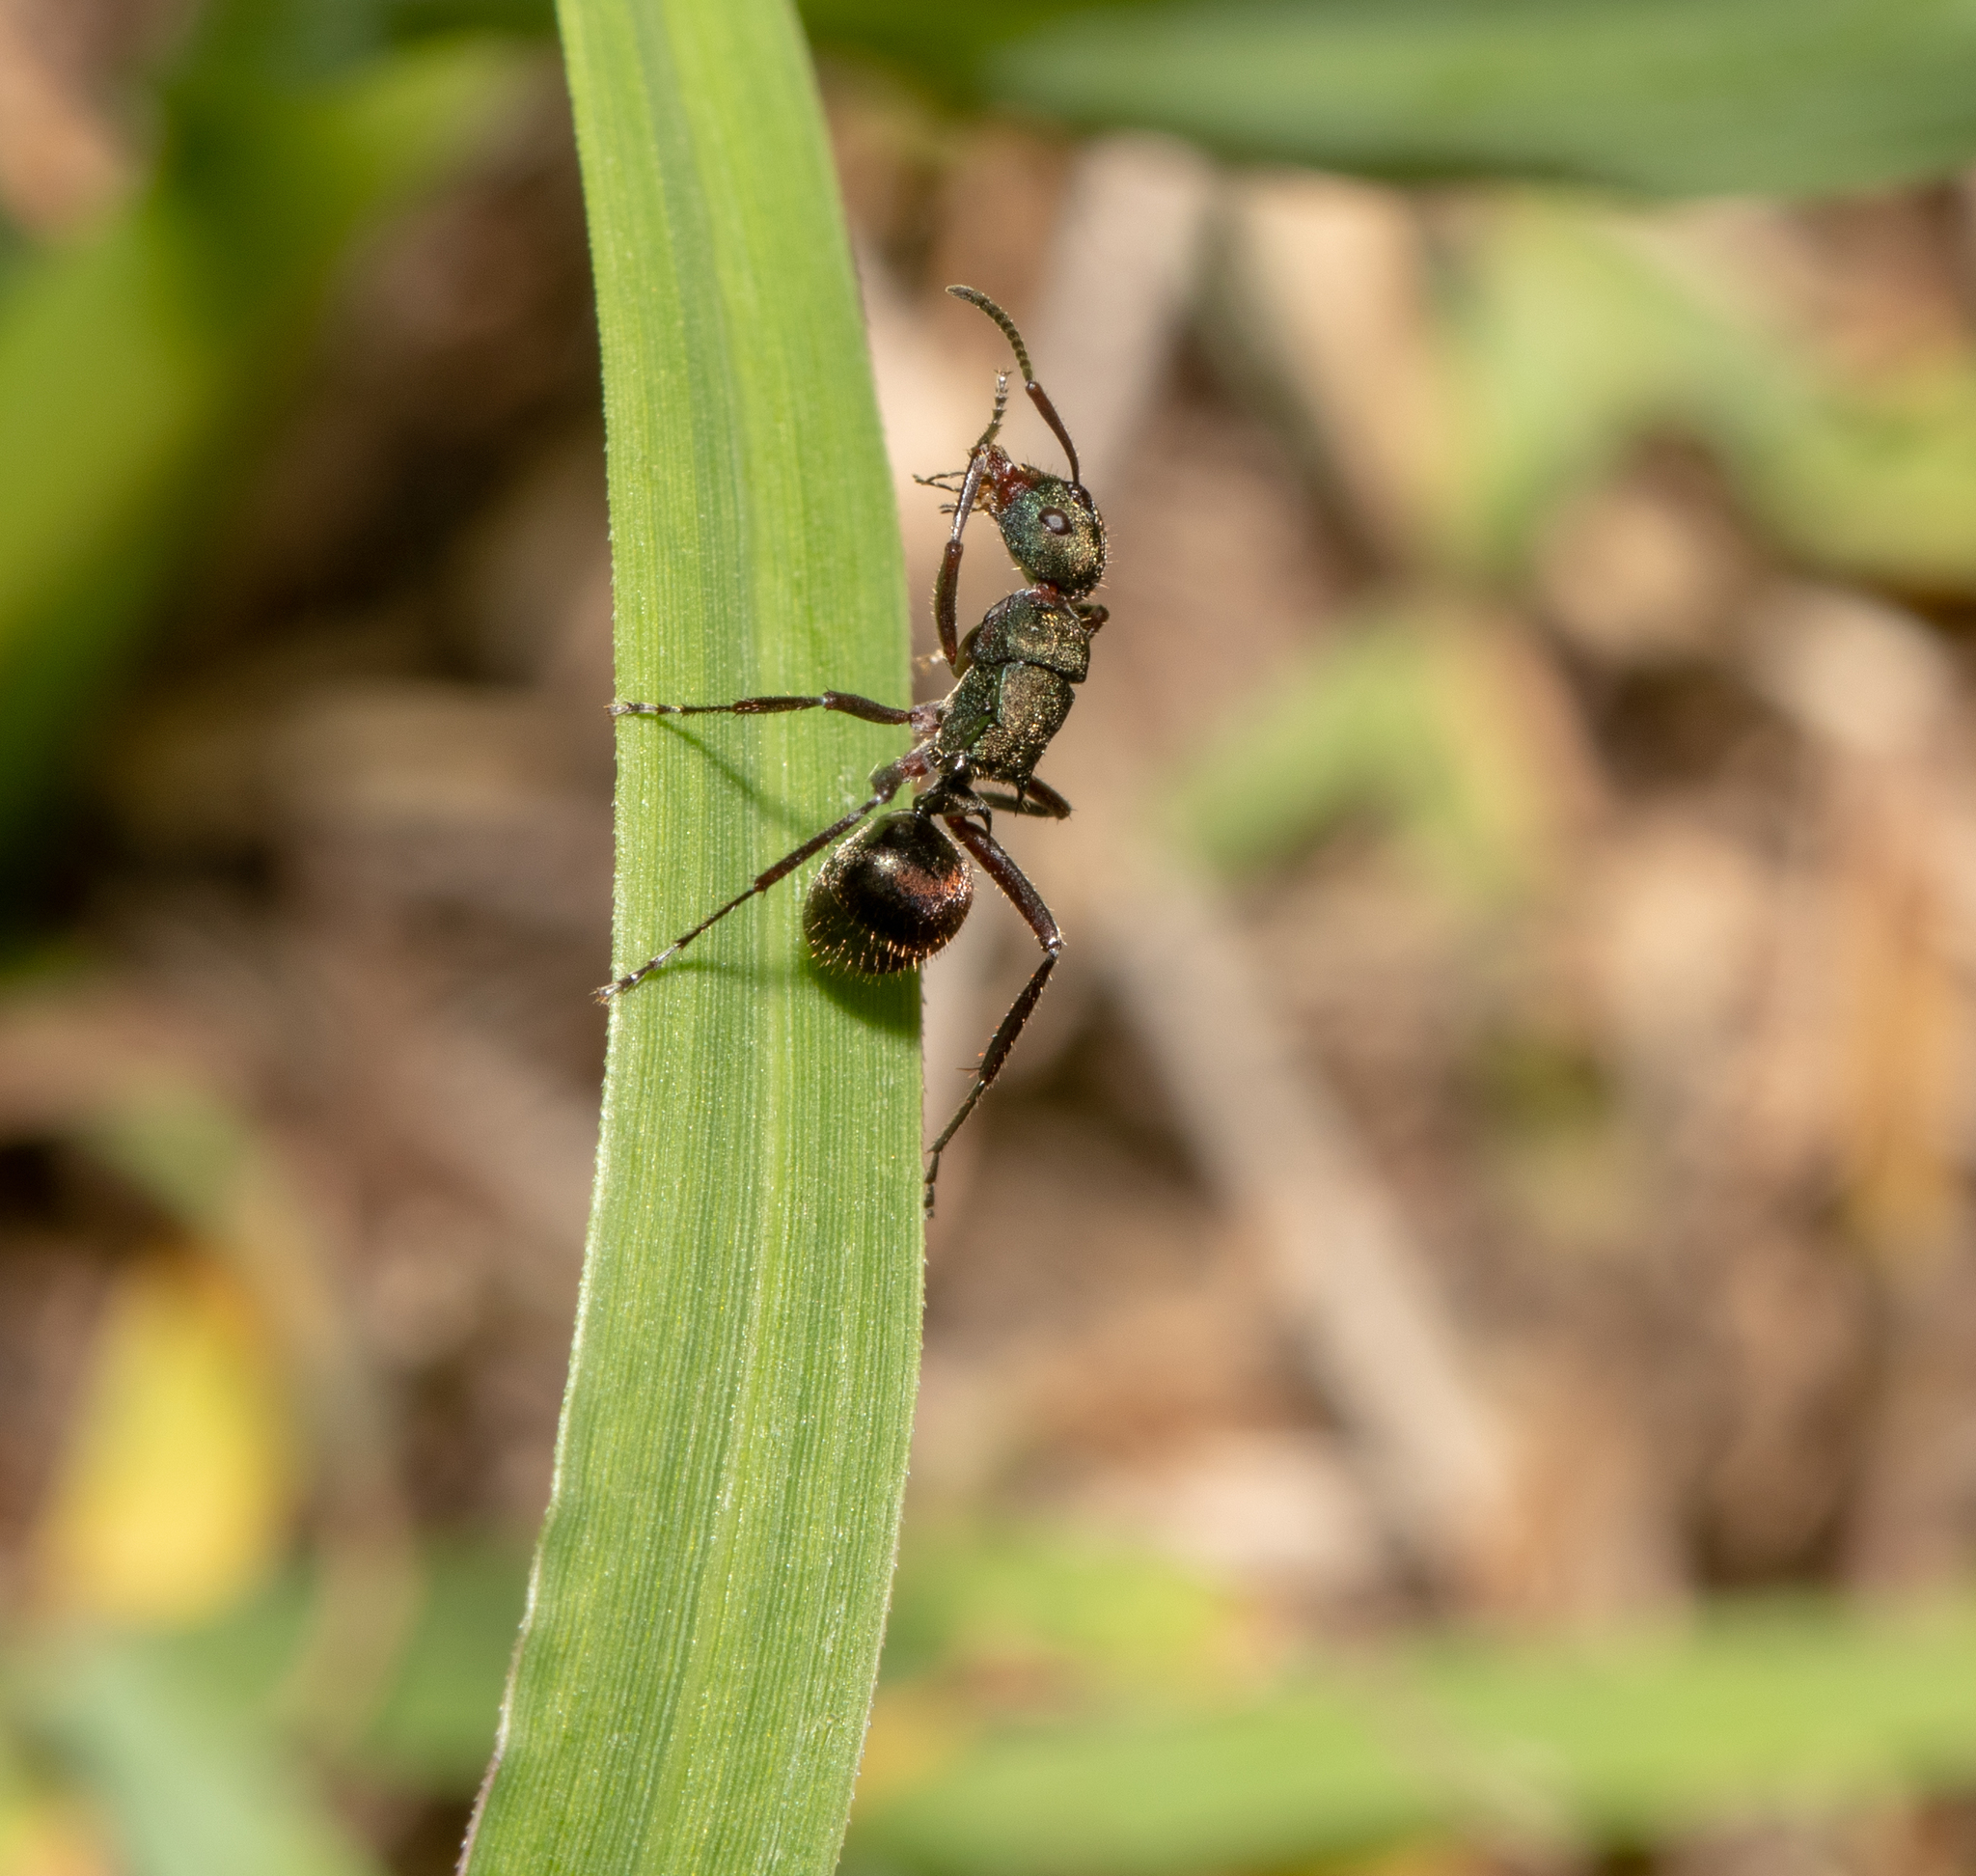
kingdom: Animalia
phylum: Arthropoda
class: Insecta
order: Hymenoptera
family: Formicidae
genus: Polyrhachis
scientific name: Polyrhachis lydiae
